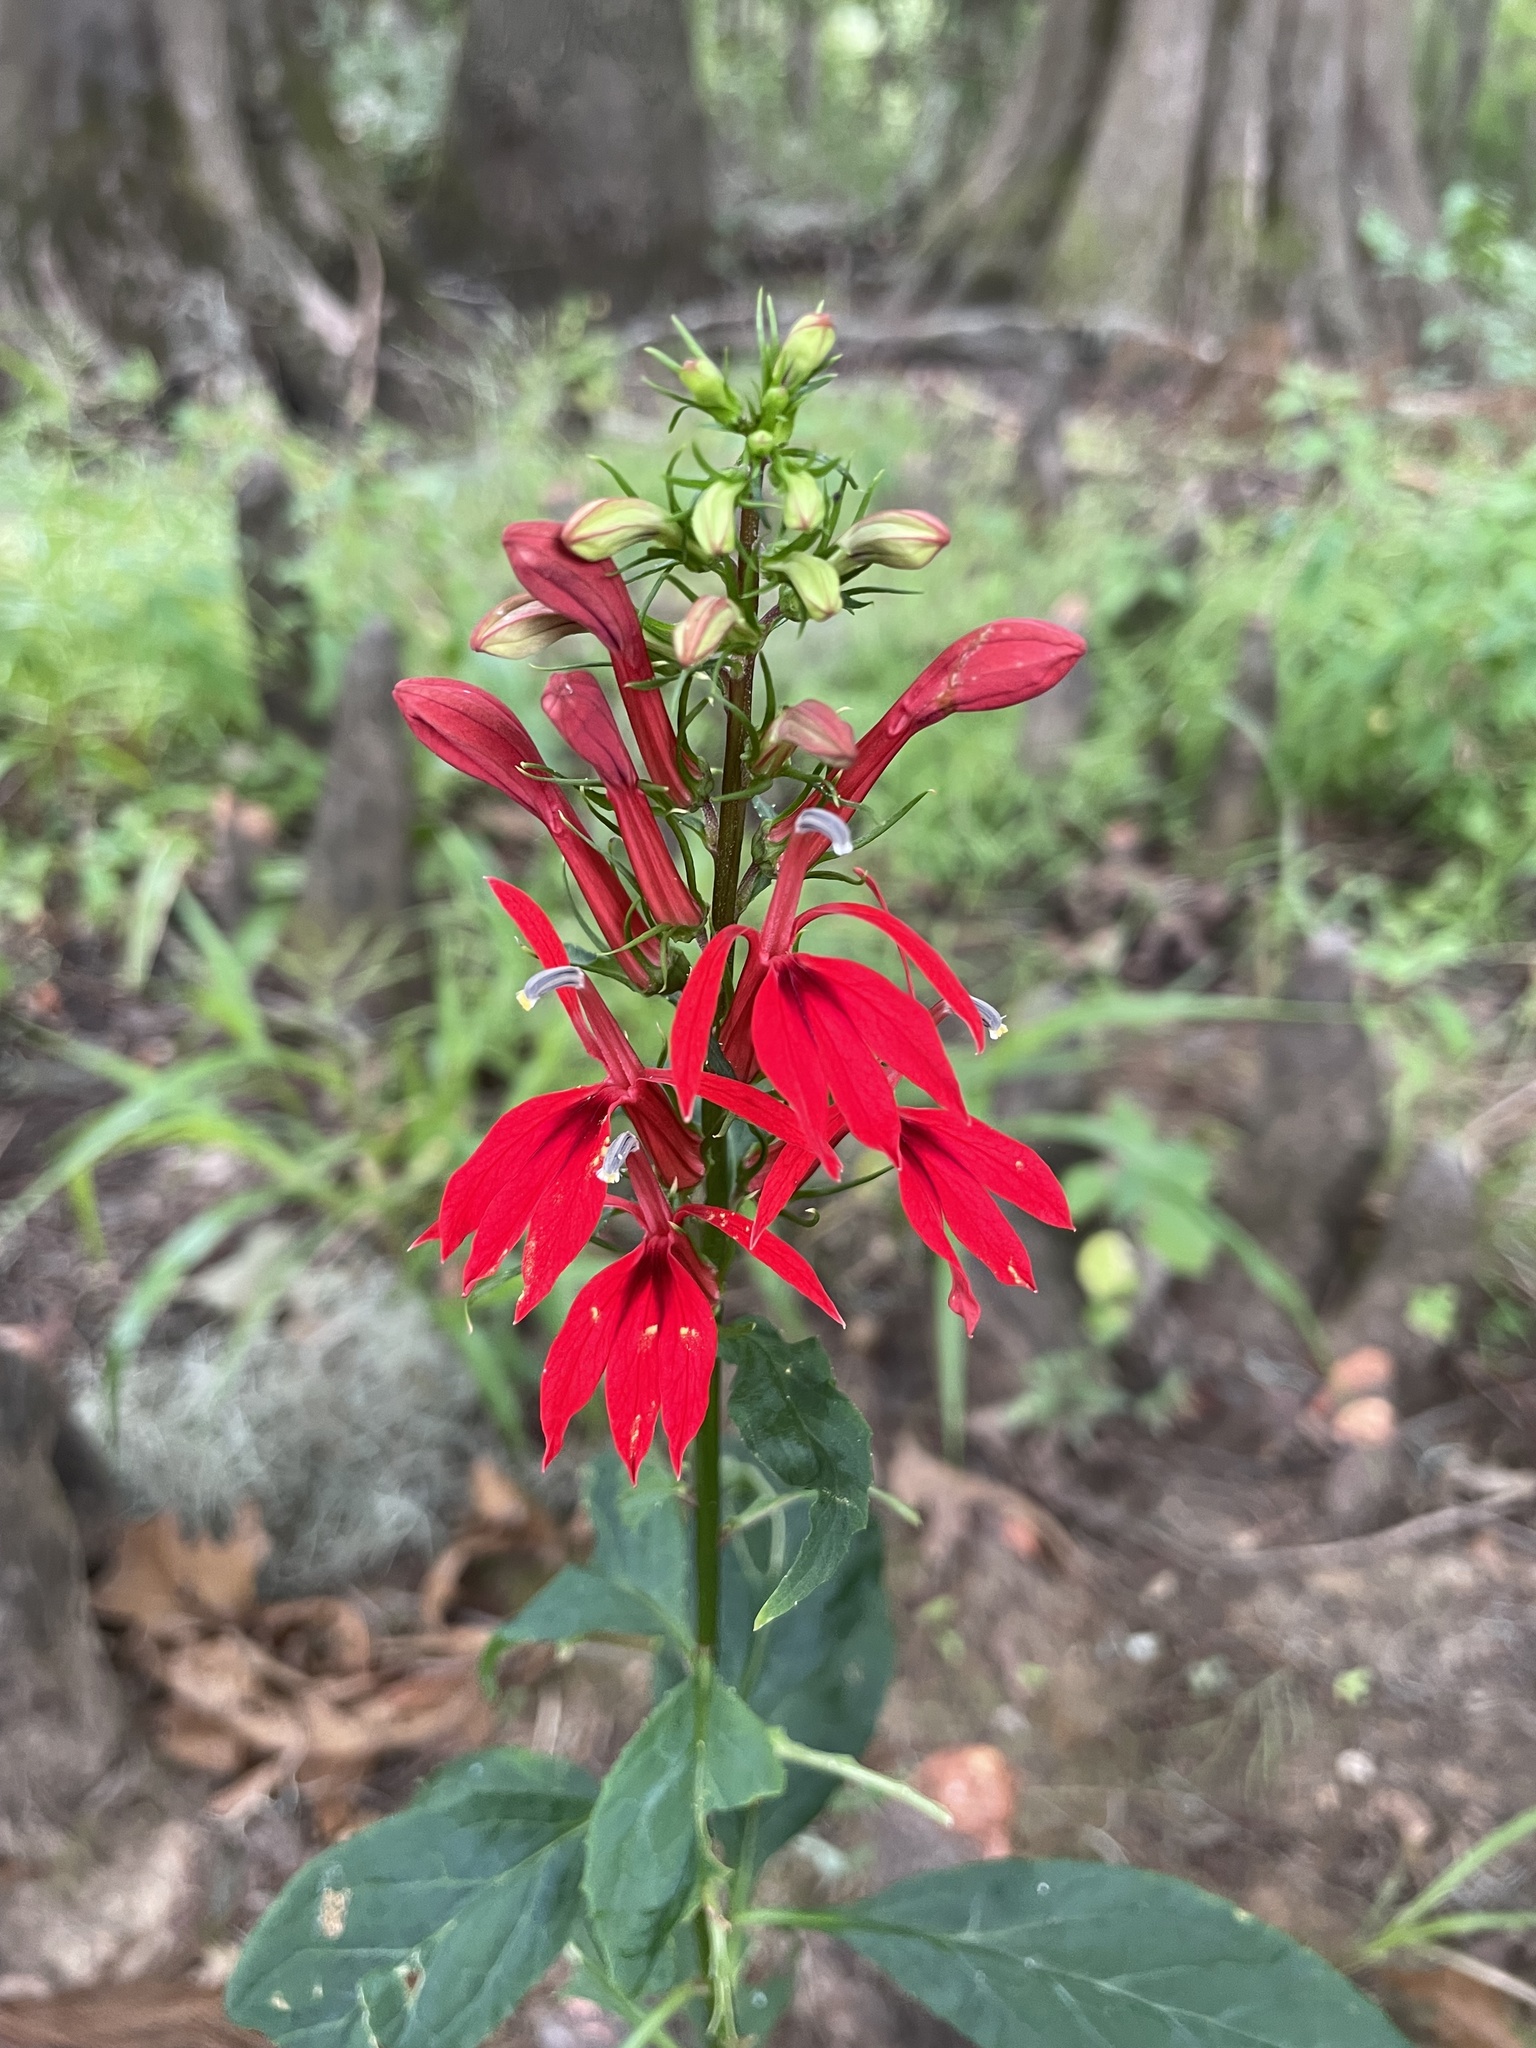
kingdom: Plantae
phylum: Tracheophyta
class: Magnoliopsida
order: Asterales
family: Campanulaceae
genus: Lobelia
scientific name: Lobelia cardinalis
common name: Cardinal flower
